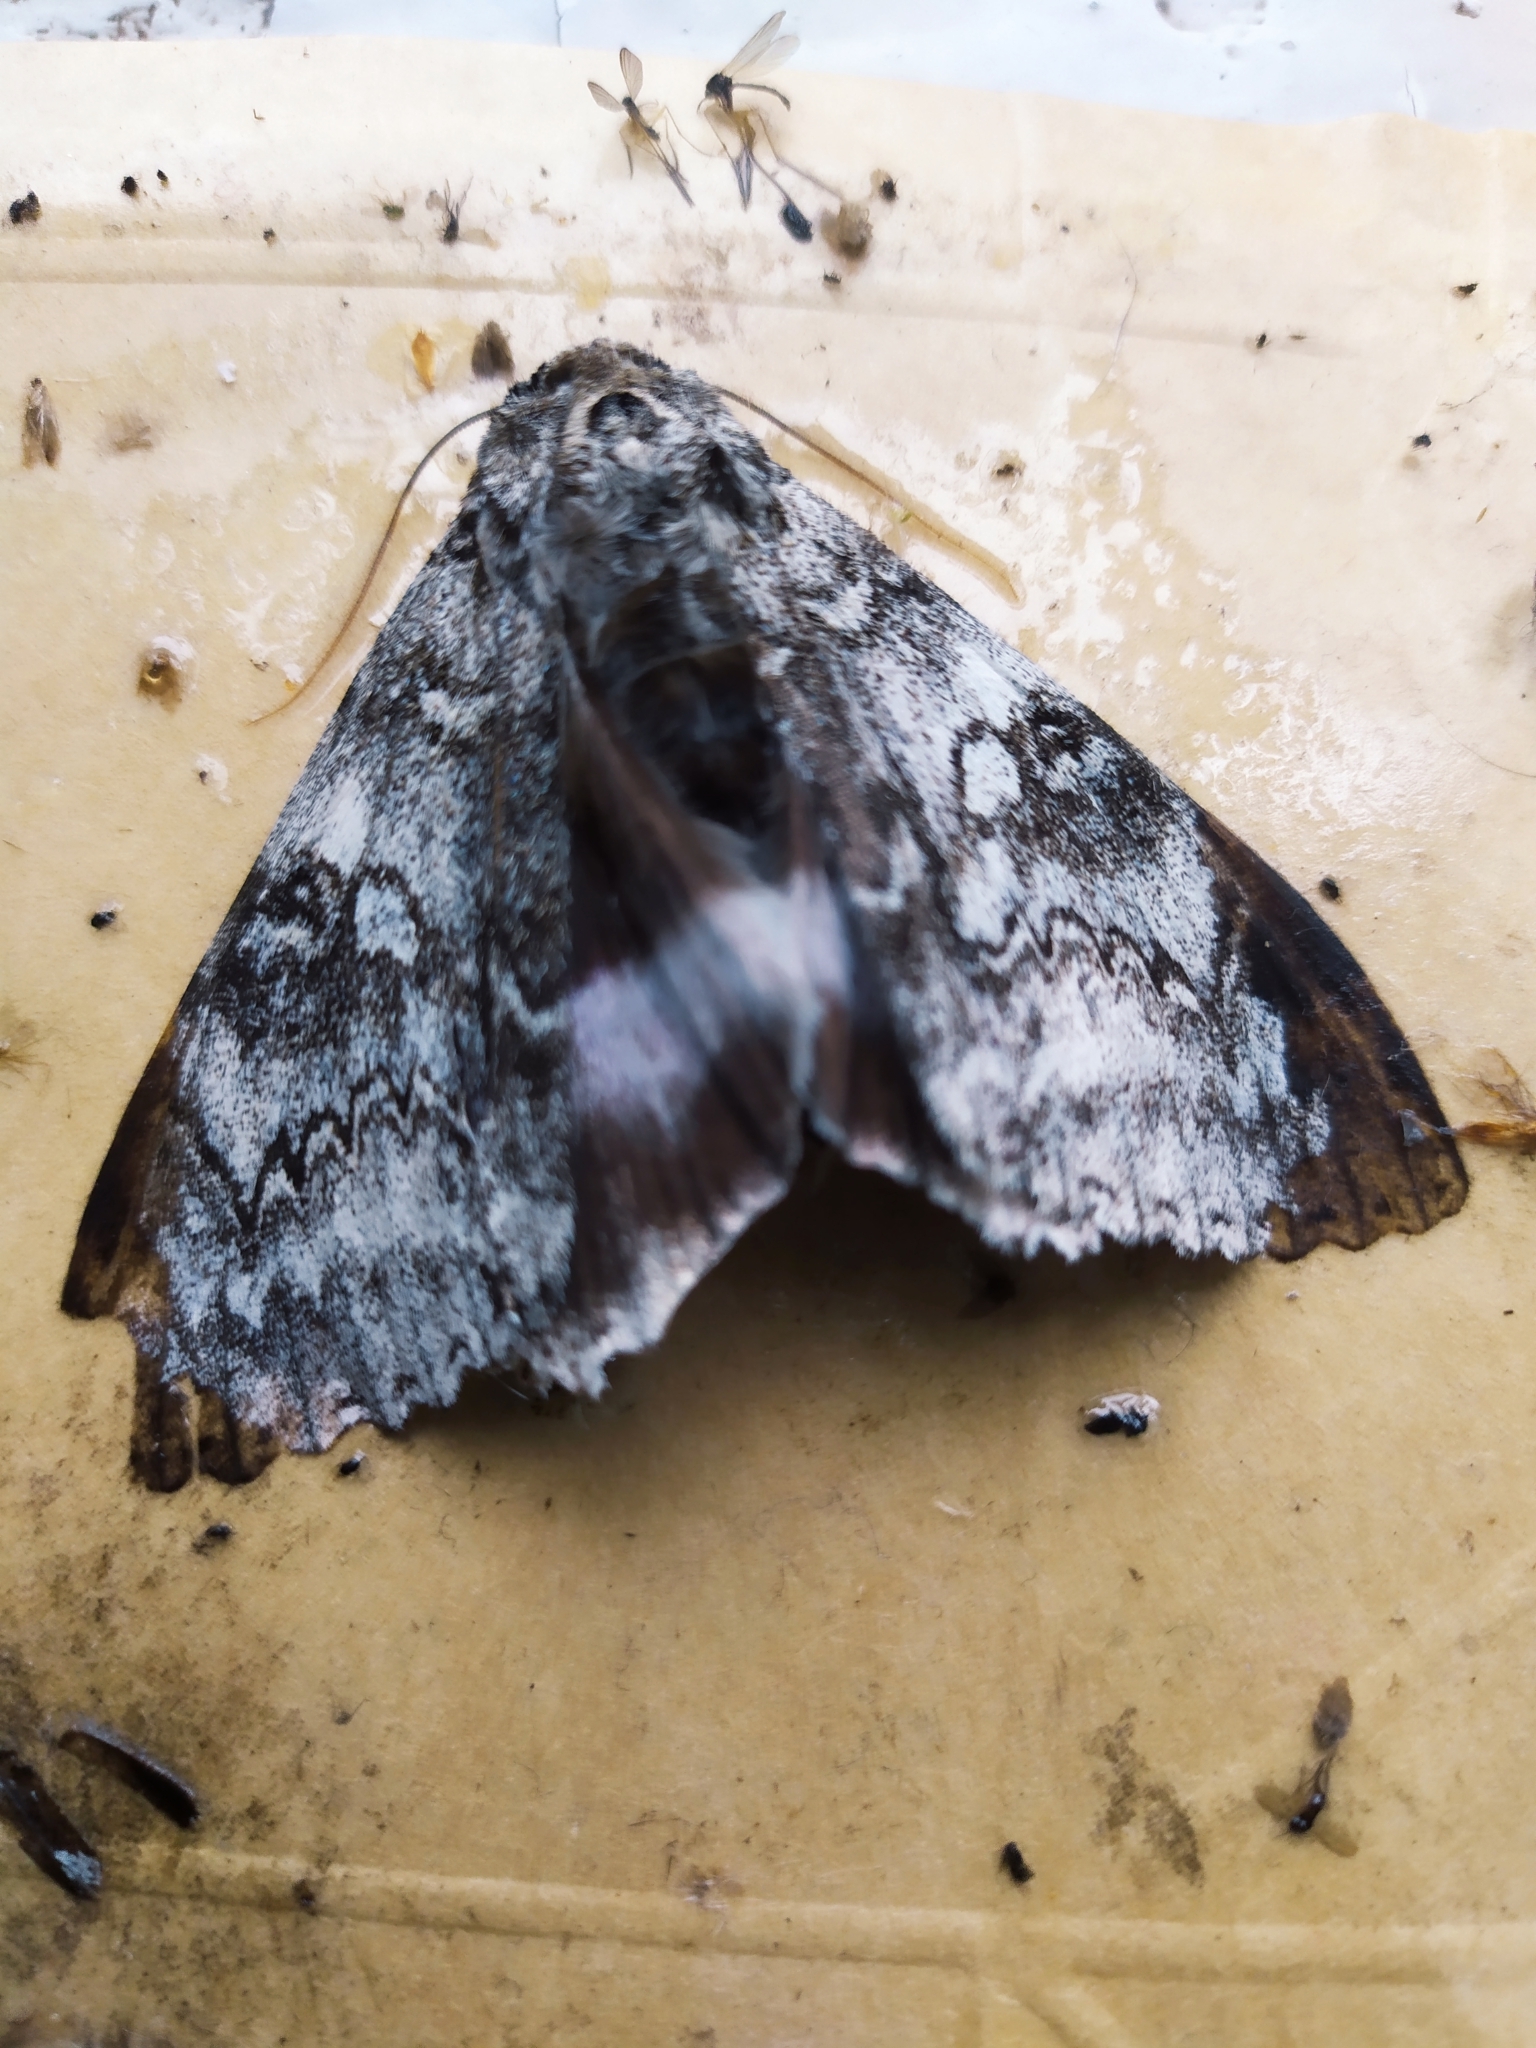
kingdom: Animalia
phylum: Arthropoda
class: Insecta
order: Lepidoptera
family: Erebidae
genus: Catocala
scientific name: Catocala fraxini
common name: Clifden nonpareil
